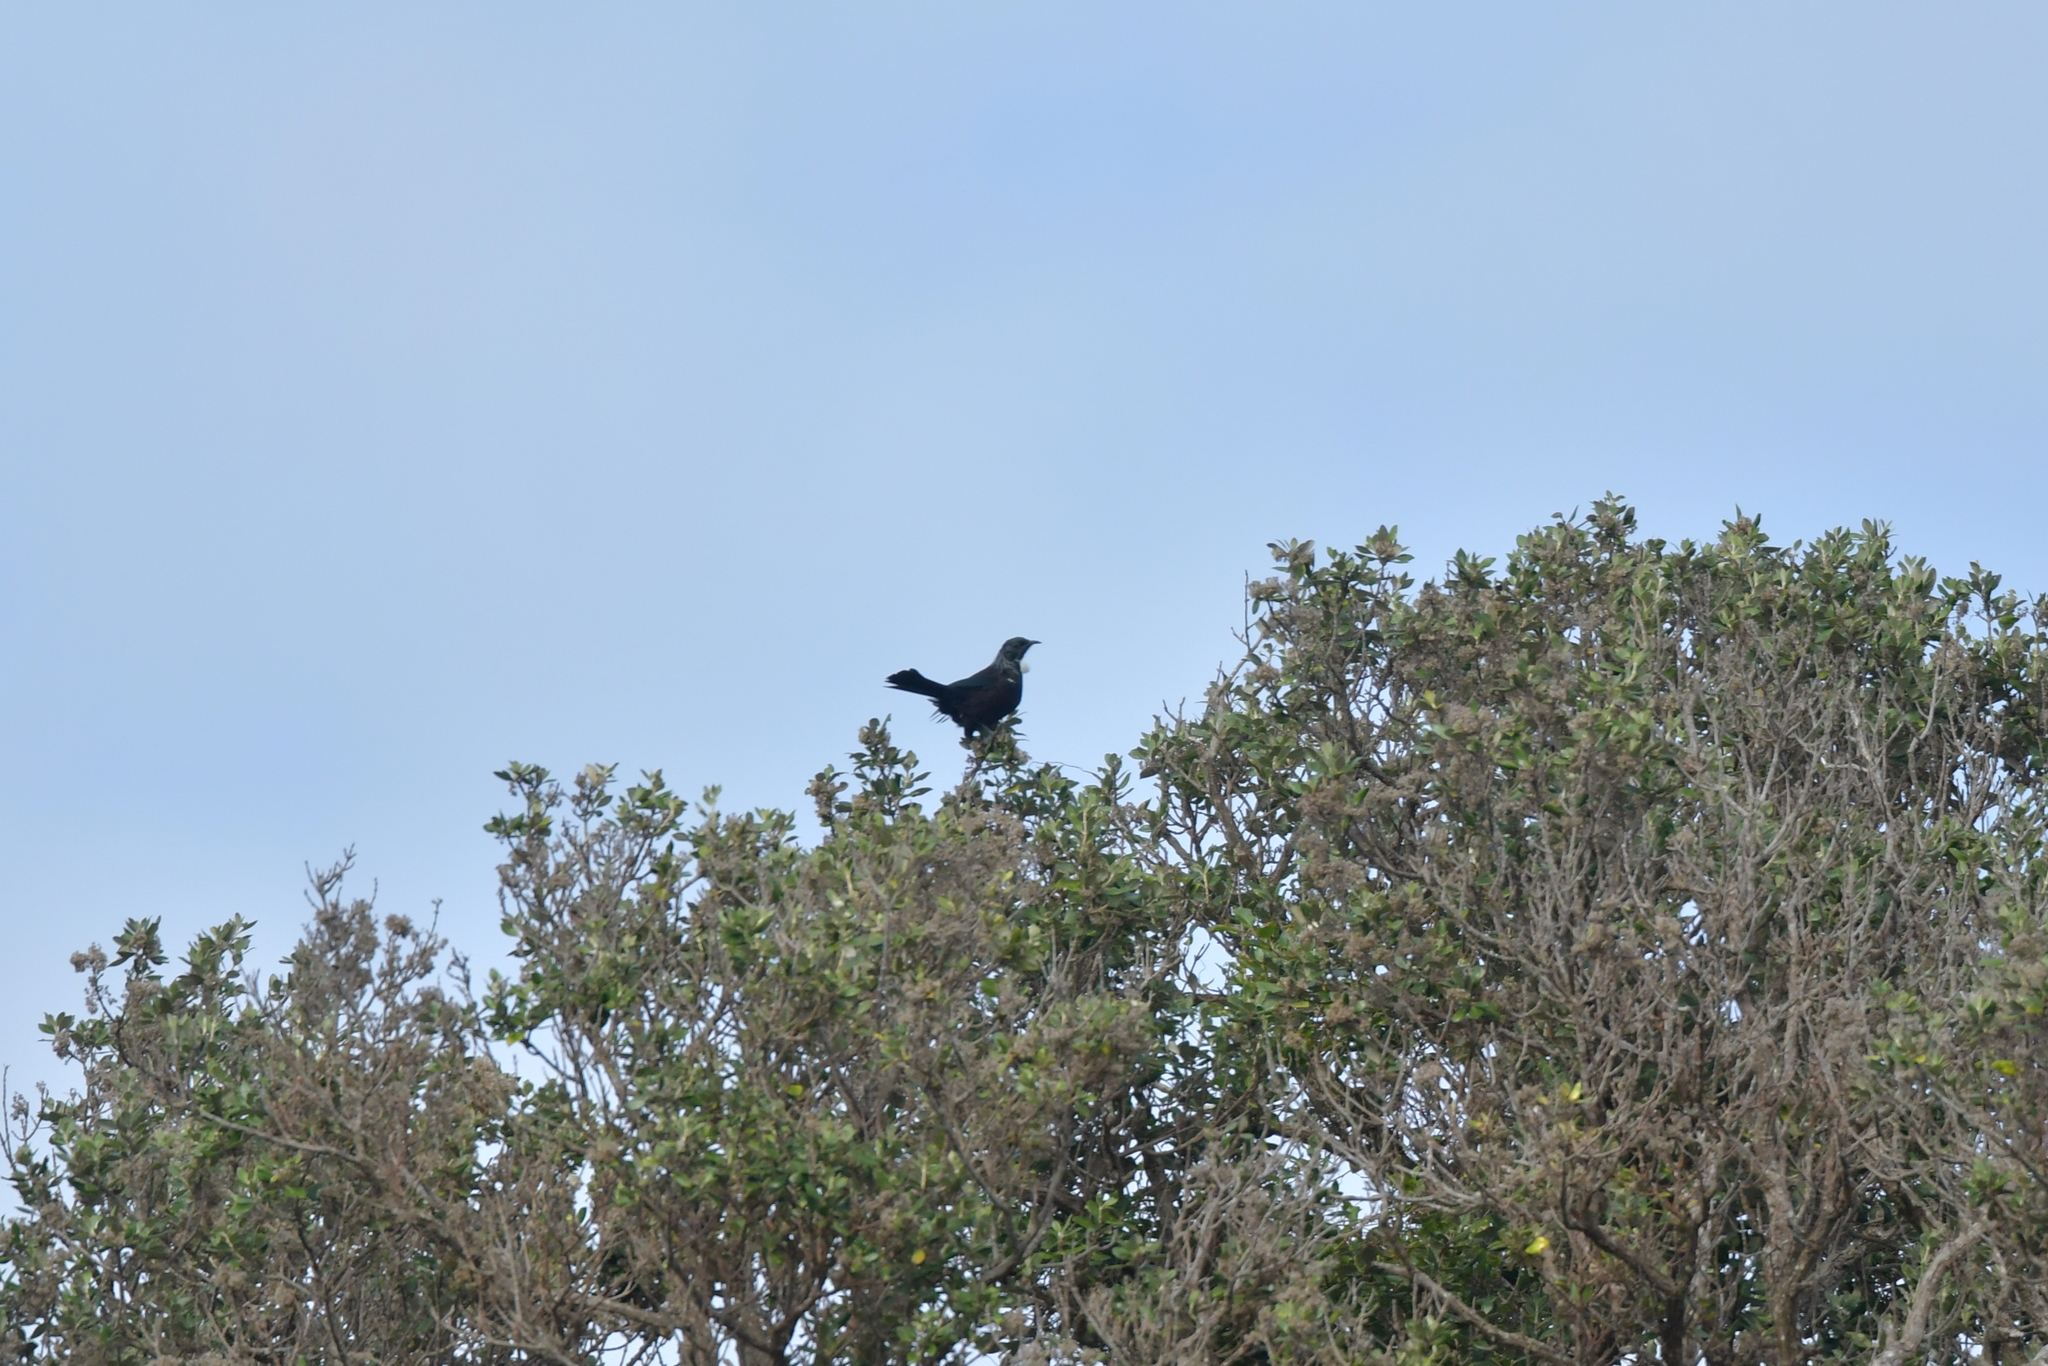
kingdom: Animalia
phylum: Chordata
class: Aves
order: Passeriformes
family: Meliphagidae
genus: Prosthemadera
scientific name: Prosthemadera novaeseelandiae
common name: Tui
